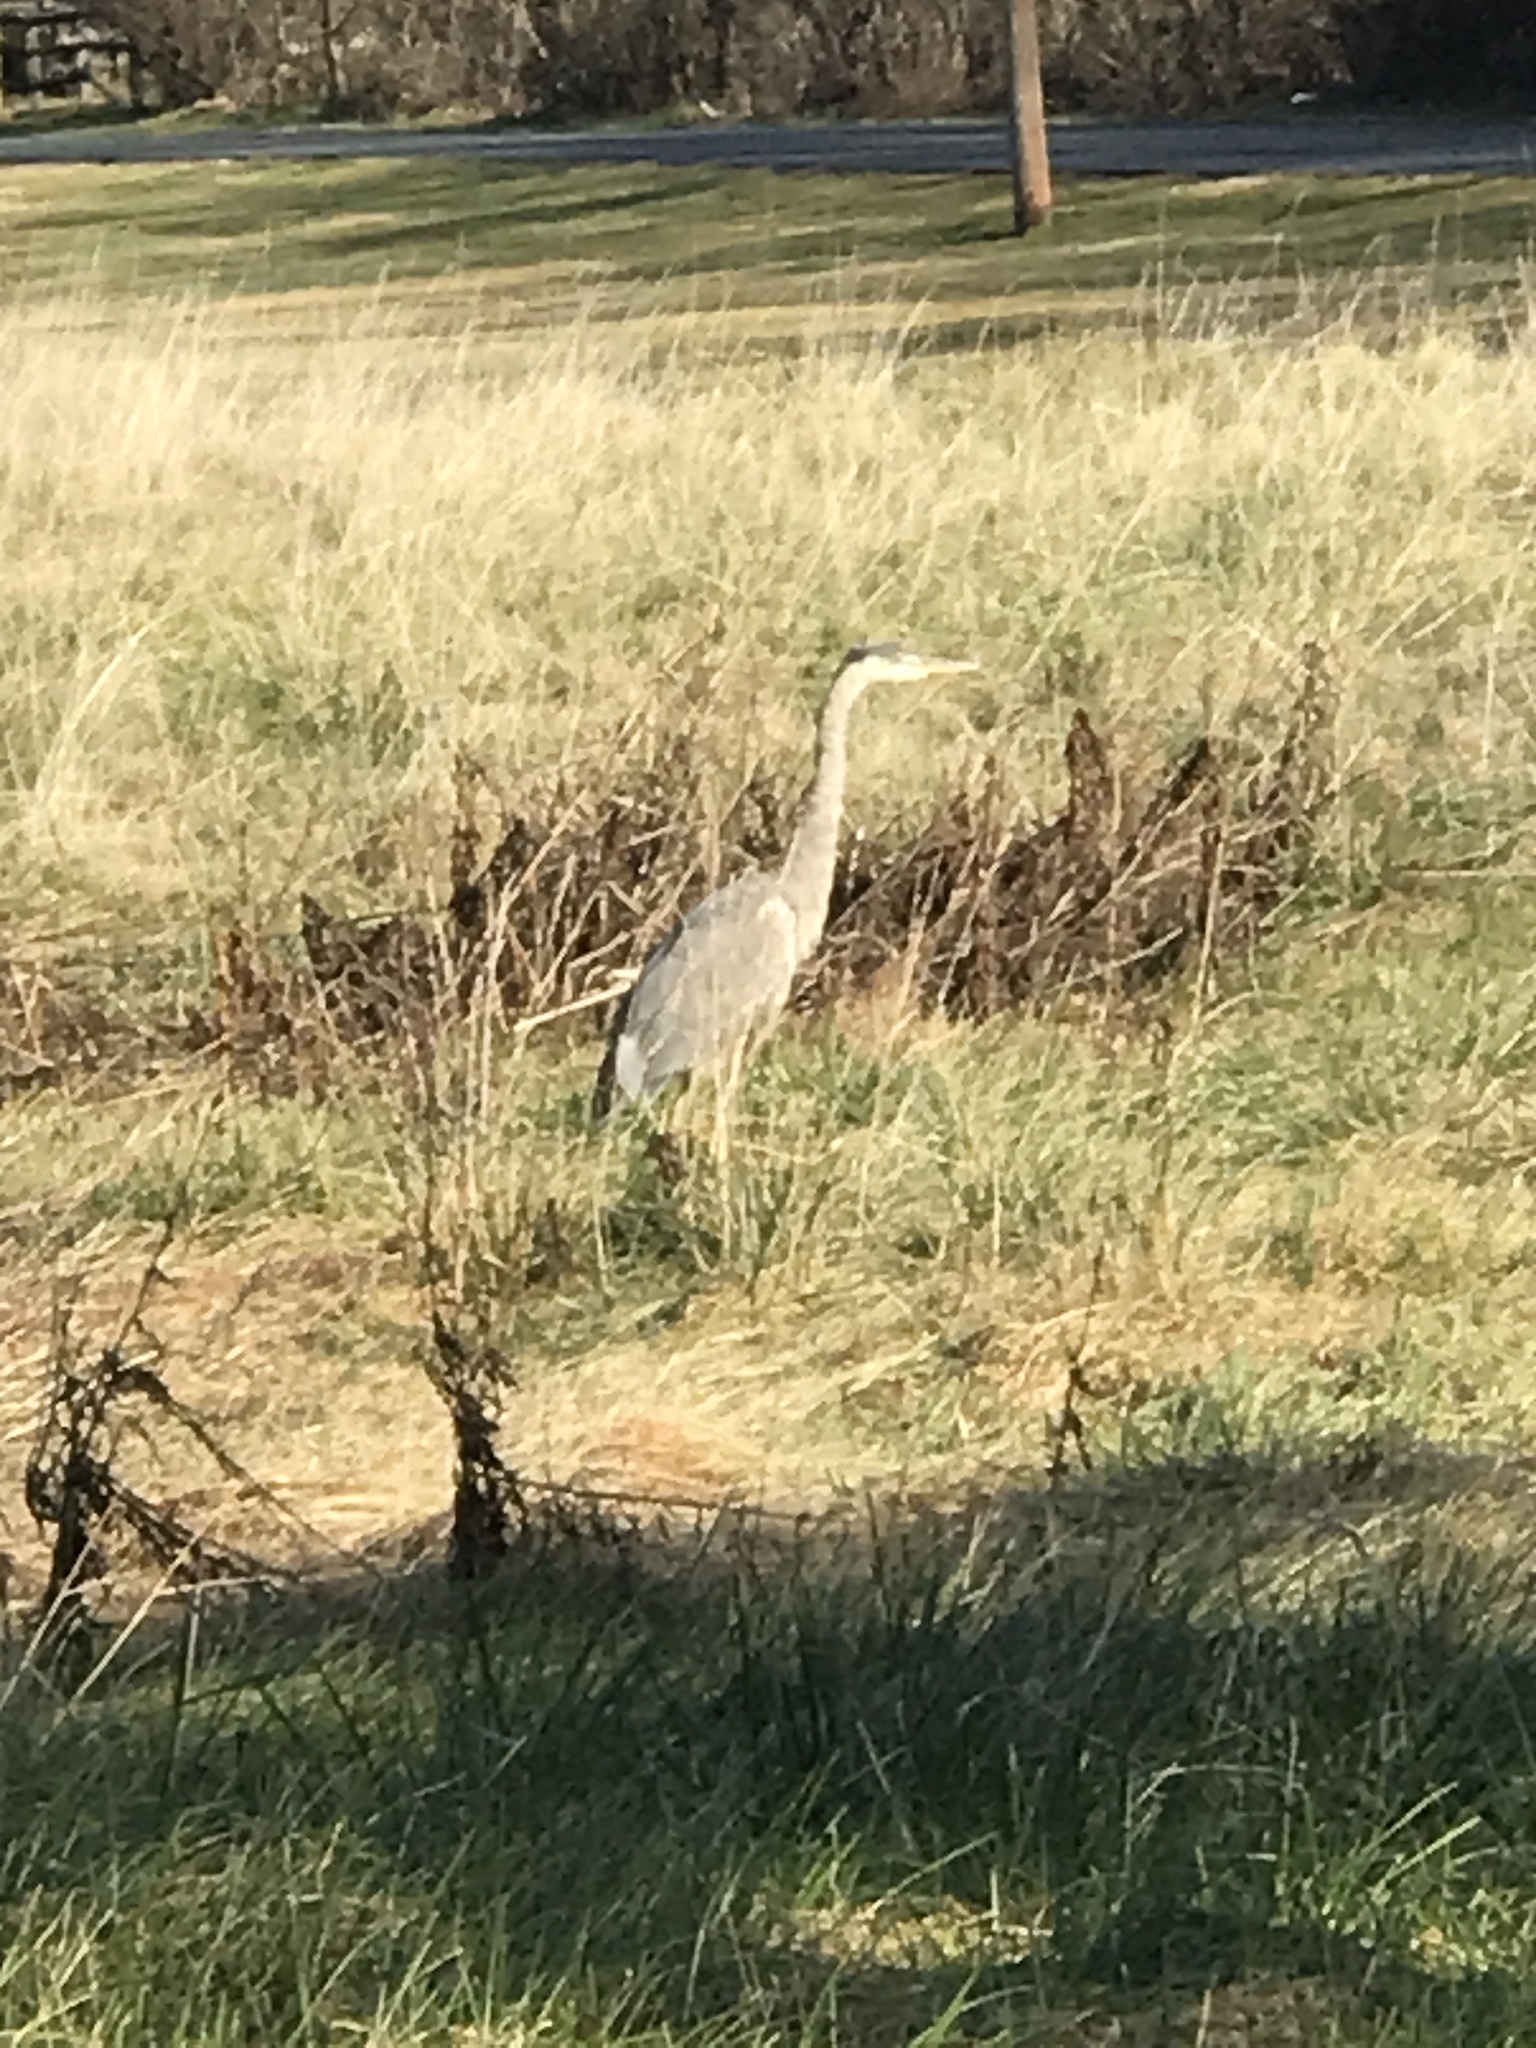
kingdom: Animalia
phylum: Chordata
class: Aves
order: Pelecaniformes
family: Ardeidae
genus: Ardea
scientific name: Ardea herodias
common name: Great blue heron
